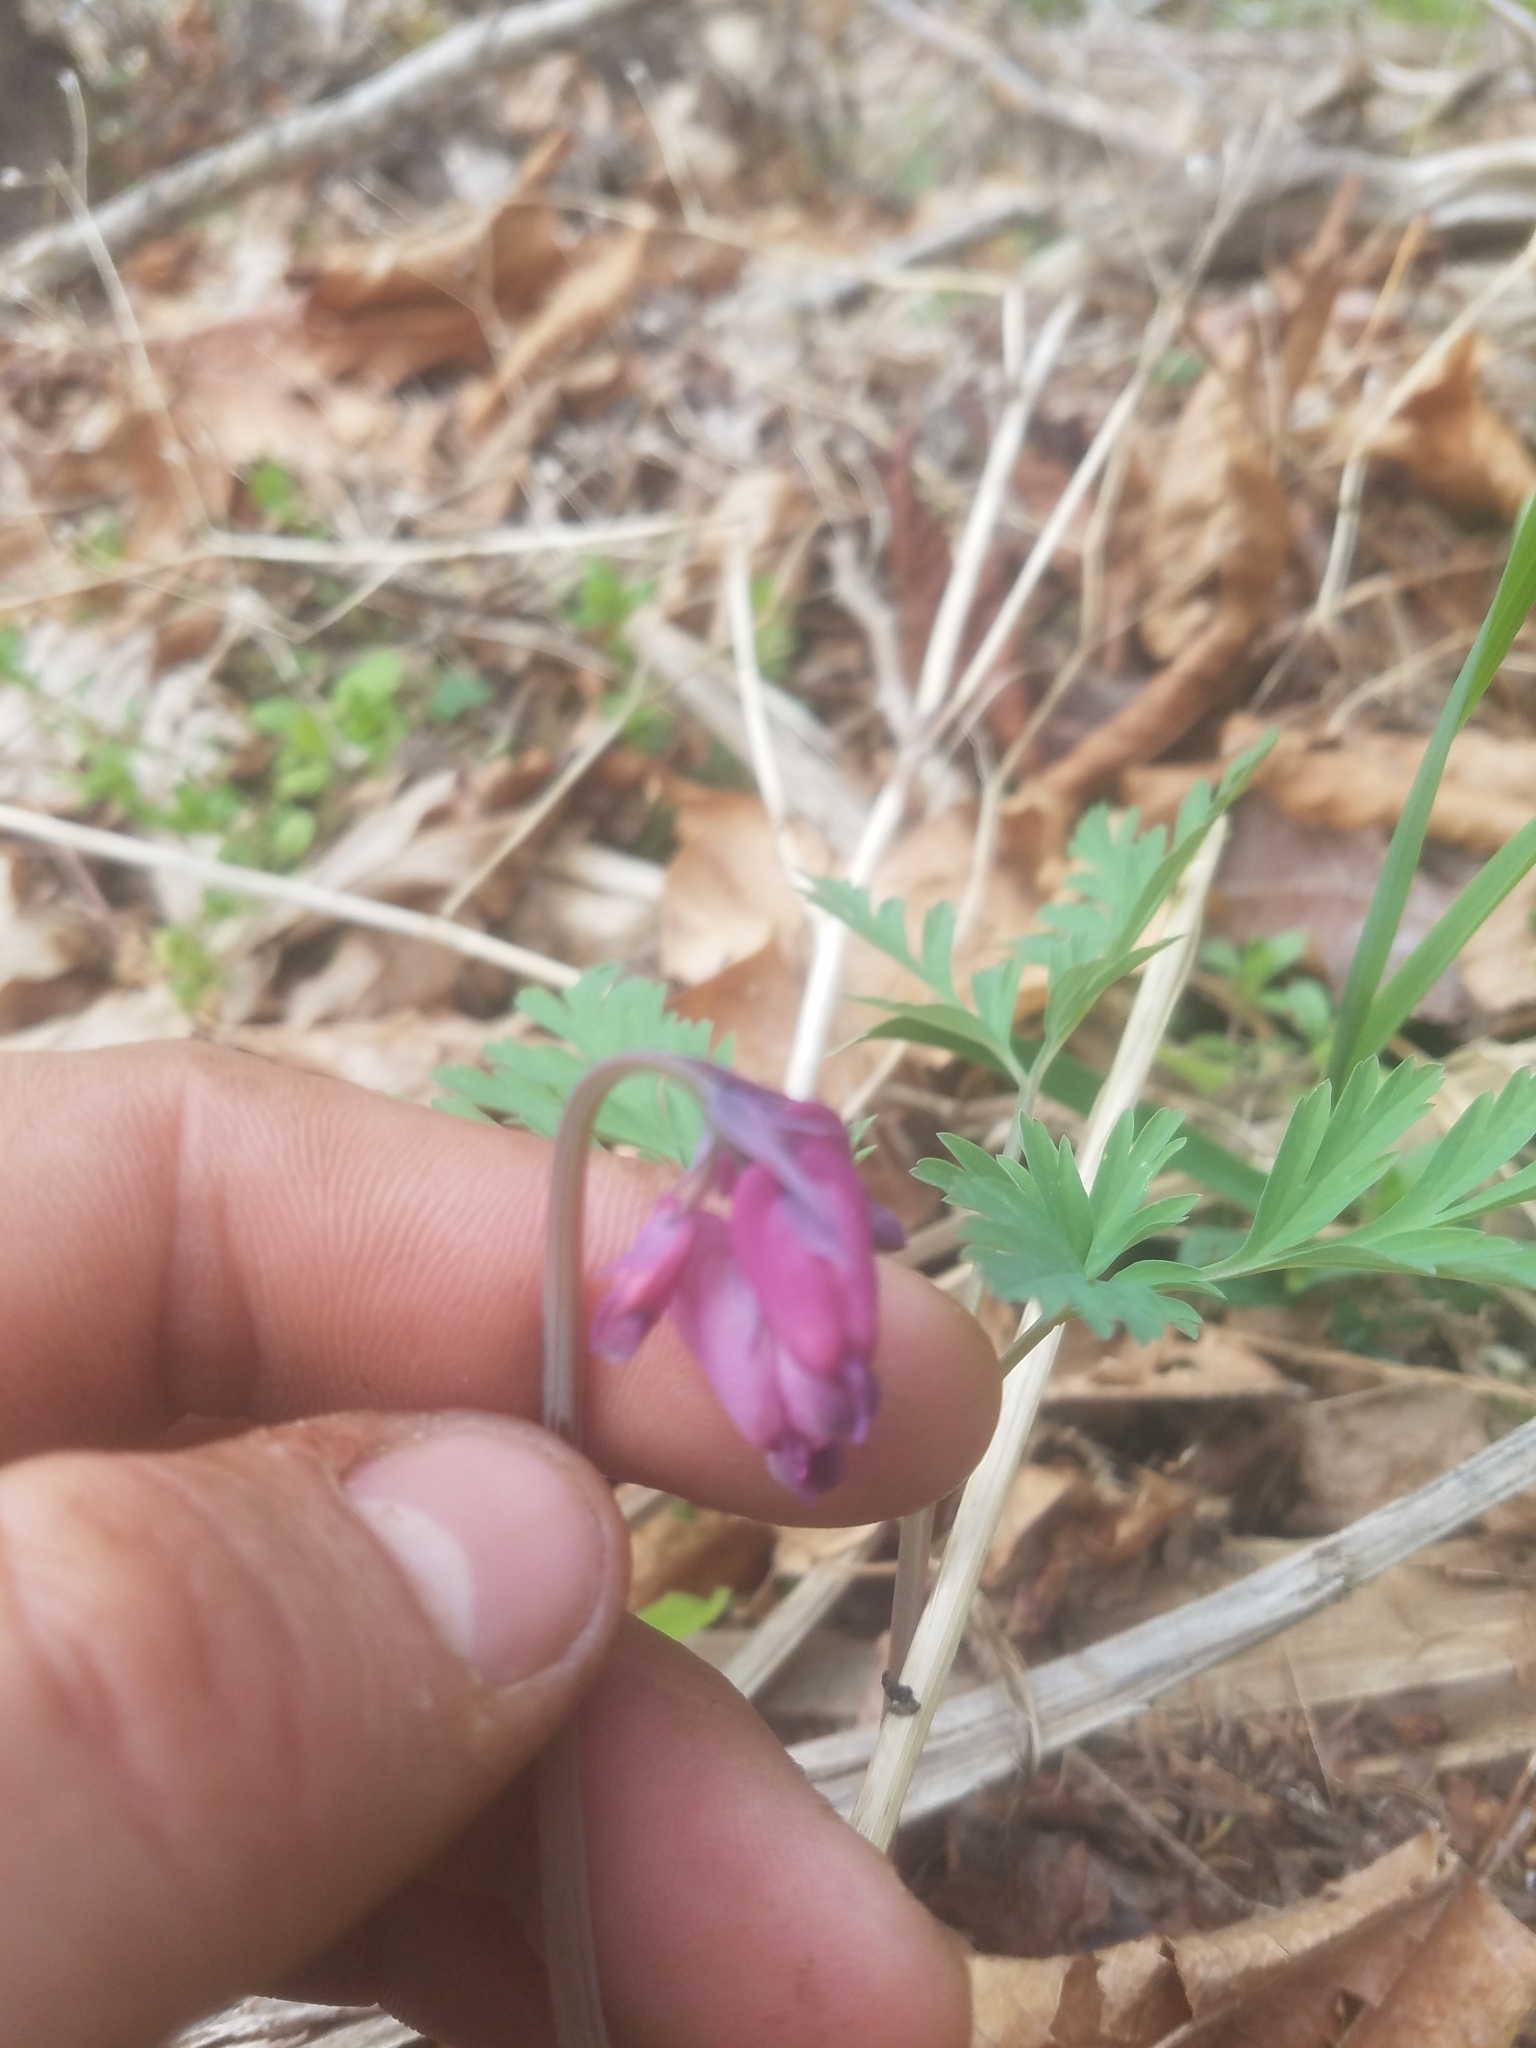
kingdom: Plantae
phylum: Tracheophyta
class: Magnoliopsida
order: Ranunculales
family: Papaveraceae
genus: Dicentra
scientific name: Dicentra formosa
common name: Bleeding-heart
